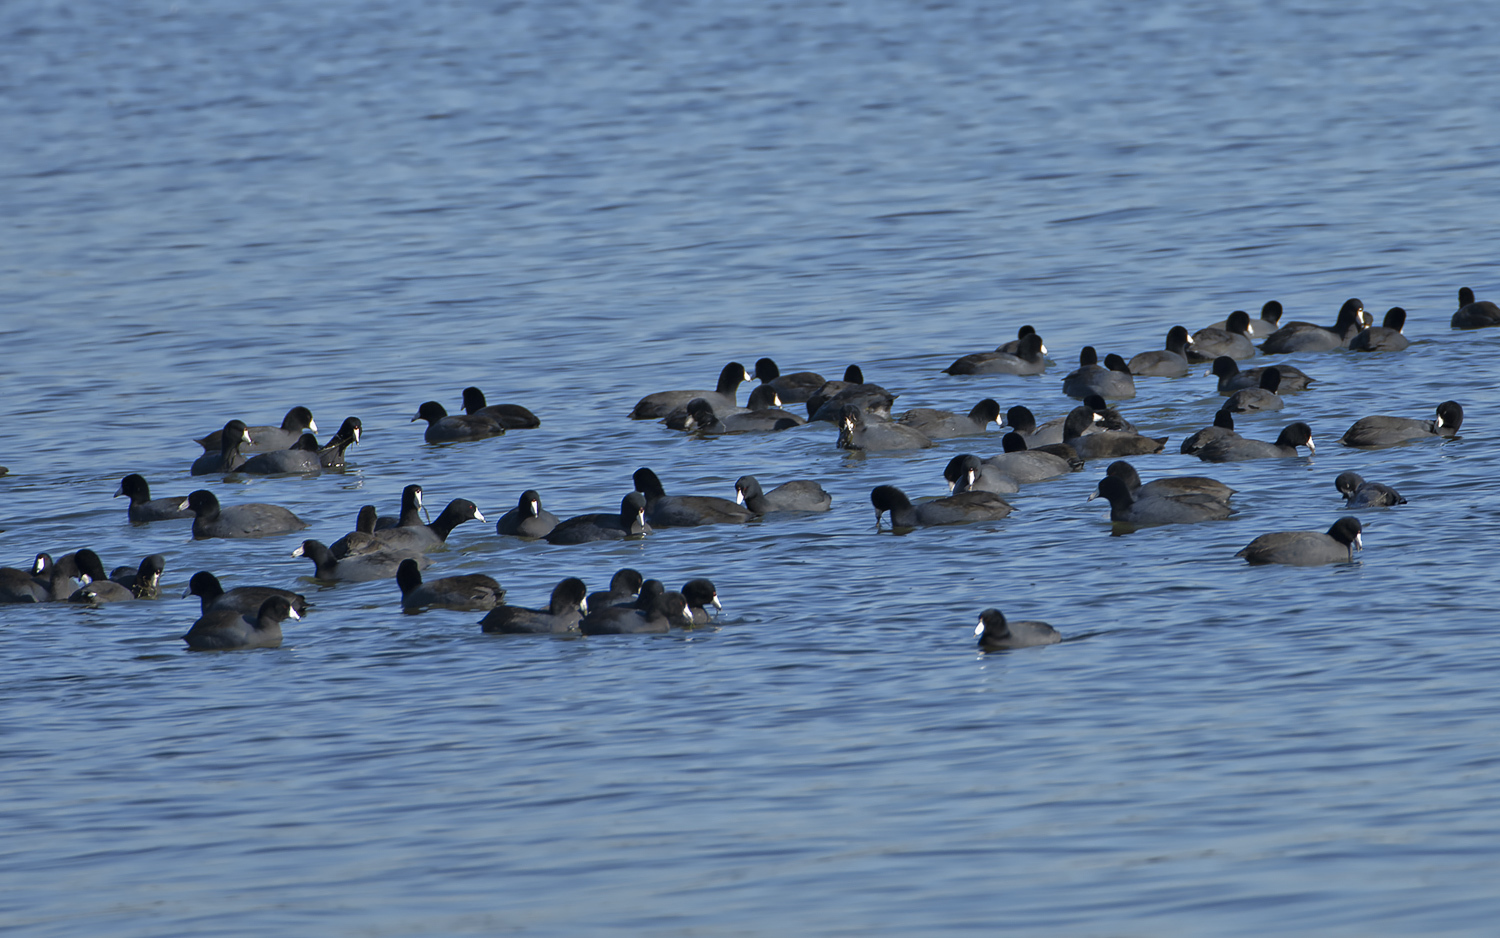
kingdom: Animalia
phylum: Chordata
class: Aves
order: Gruiformes
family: Rallidae
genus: Fulica
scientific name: Fulica americana
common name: American coot
